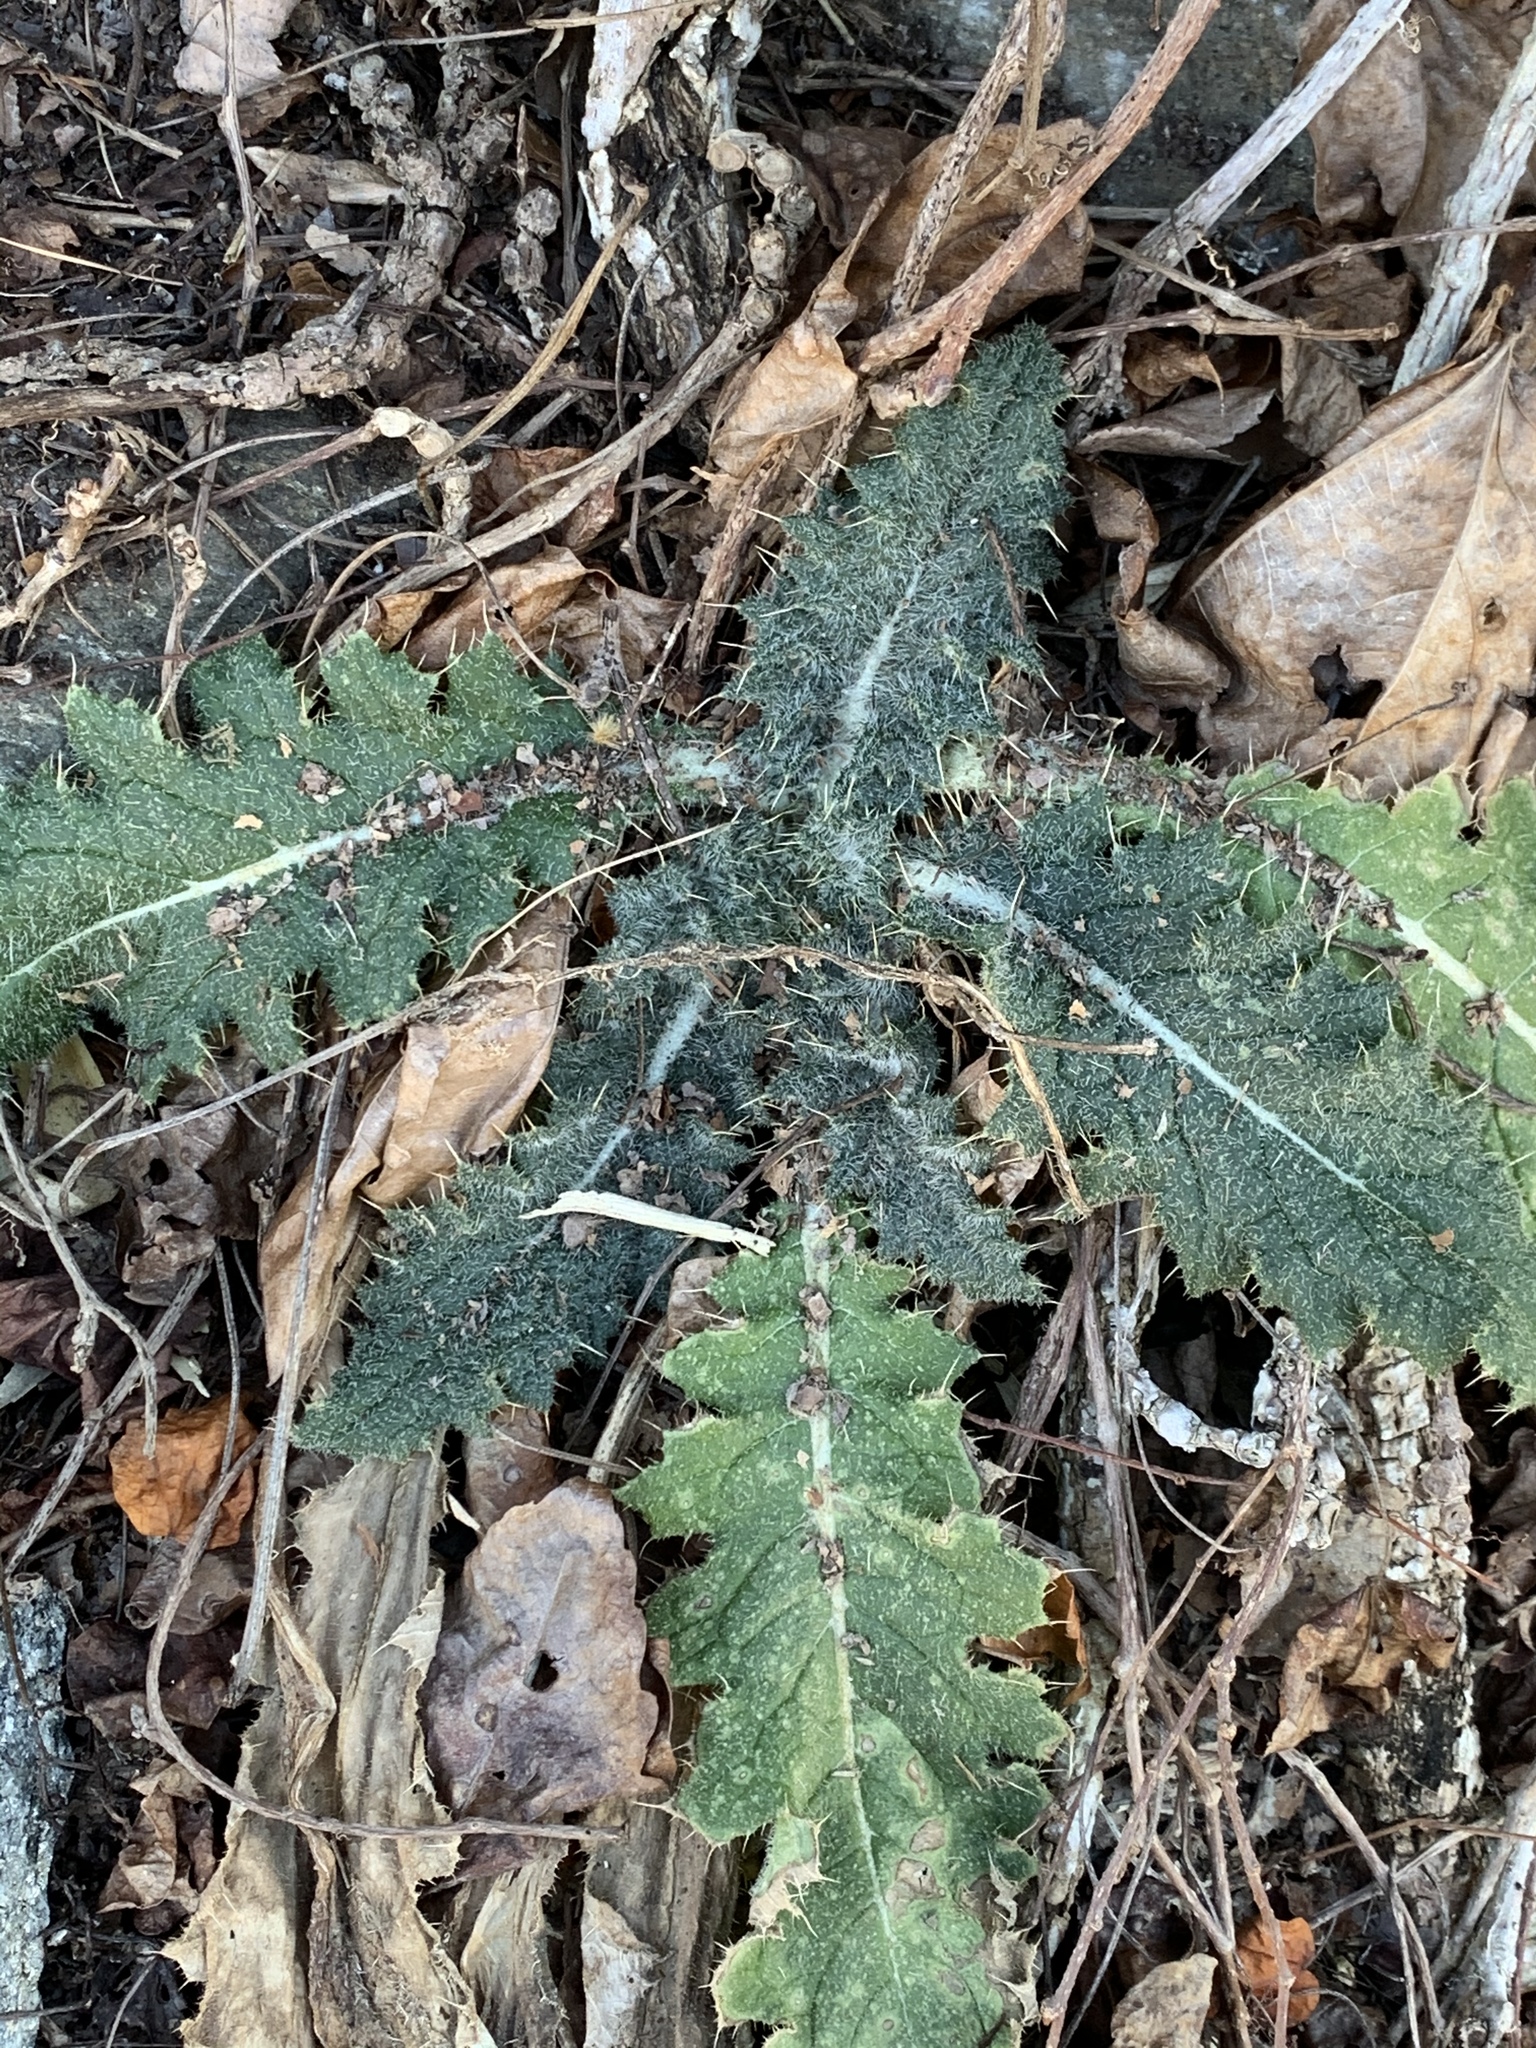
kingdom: Plantae
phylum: Tracheophyta
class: Magnoliopsida
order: Asterales
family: Asteraceae
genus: Cirsium
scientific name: Cirsium vulgare
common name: Bull thistle
